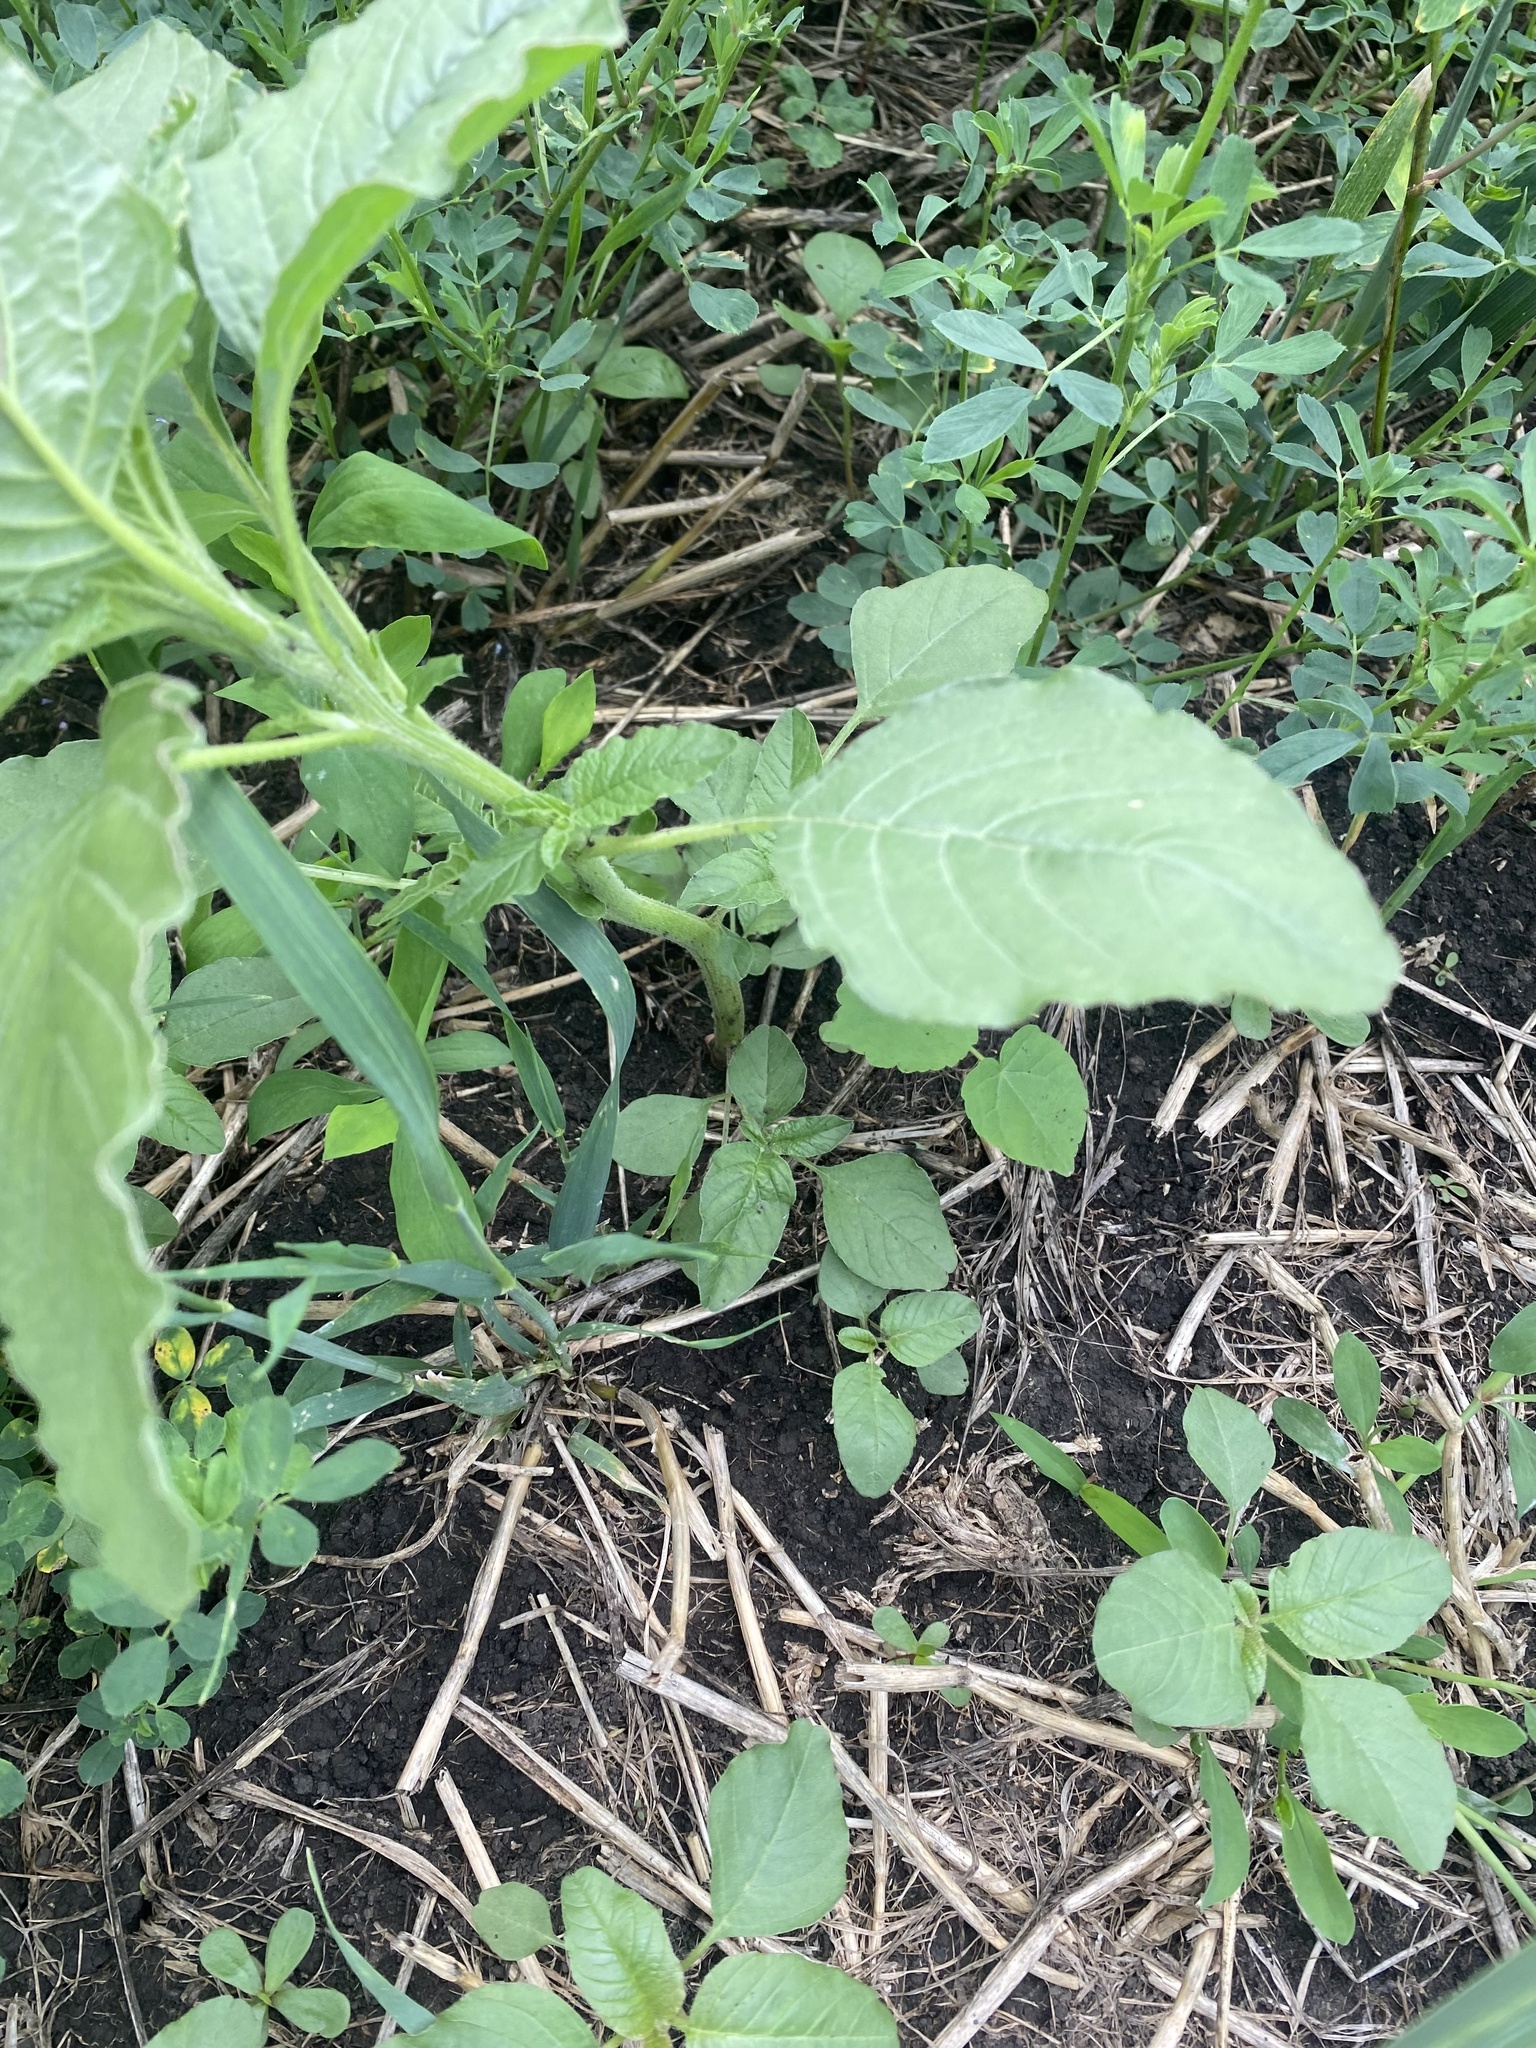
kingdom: Plantae
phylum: Tracheophyta
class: Magnoliopsida
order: Caryophyllales
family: Amaranthaceae
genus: Amaranthus
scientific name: Amaranthus retroflexus
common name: Redroot amaranth
